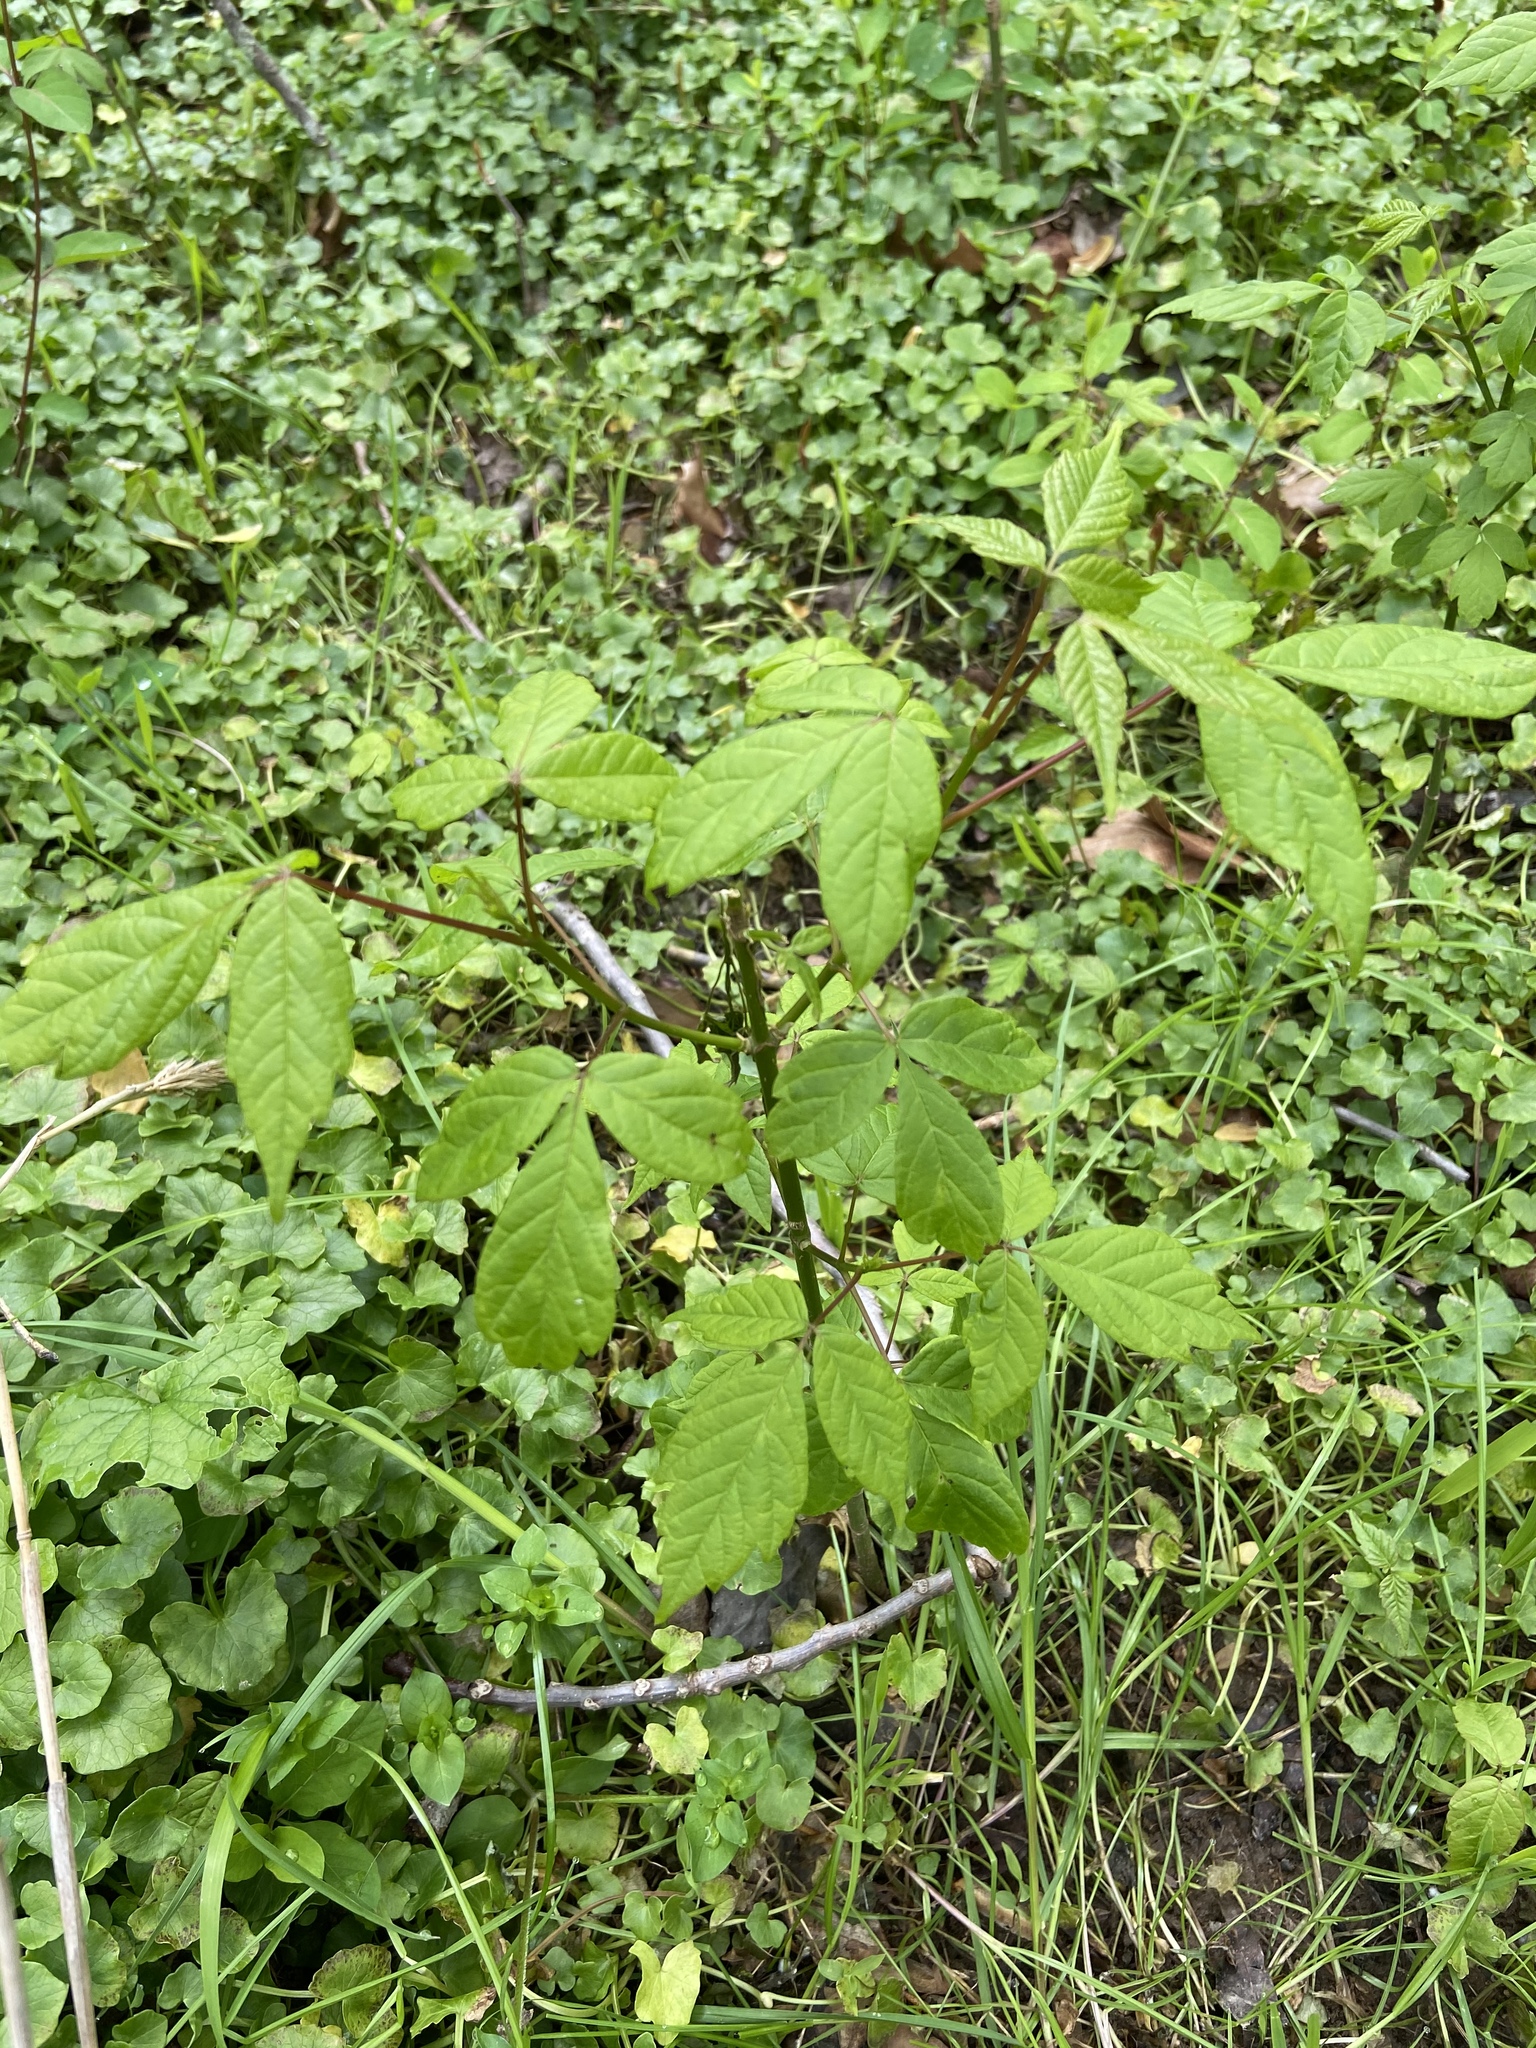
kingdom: Plantae
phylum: Tracheophyta
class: Magnoliopsida
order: Sapindales
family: Sapindaceae
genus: Acer
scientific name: Acer negundo
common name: Ashleaf maple
